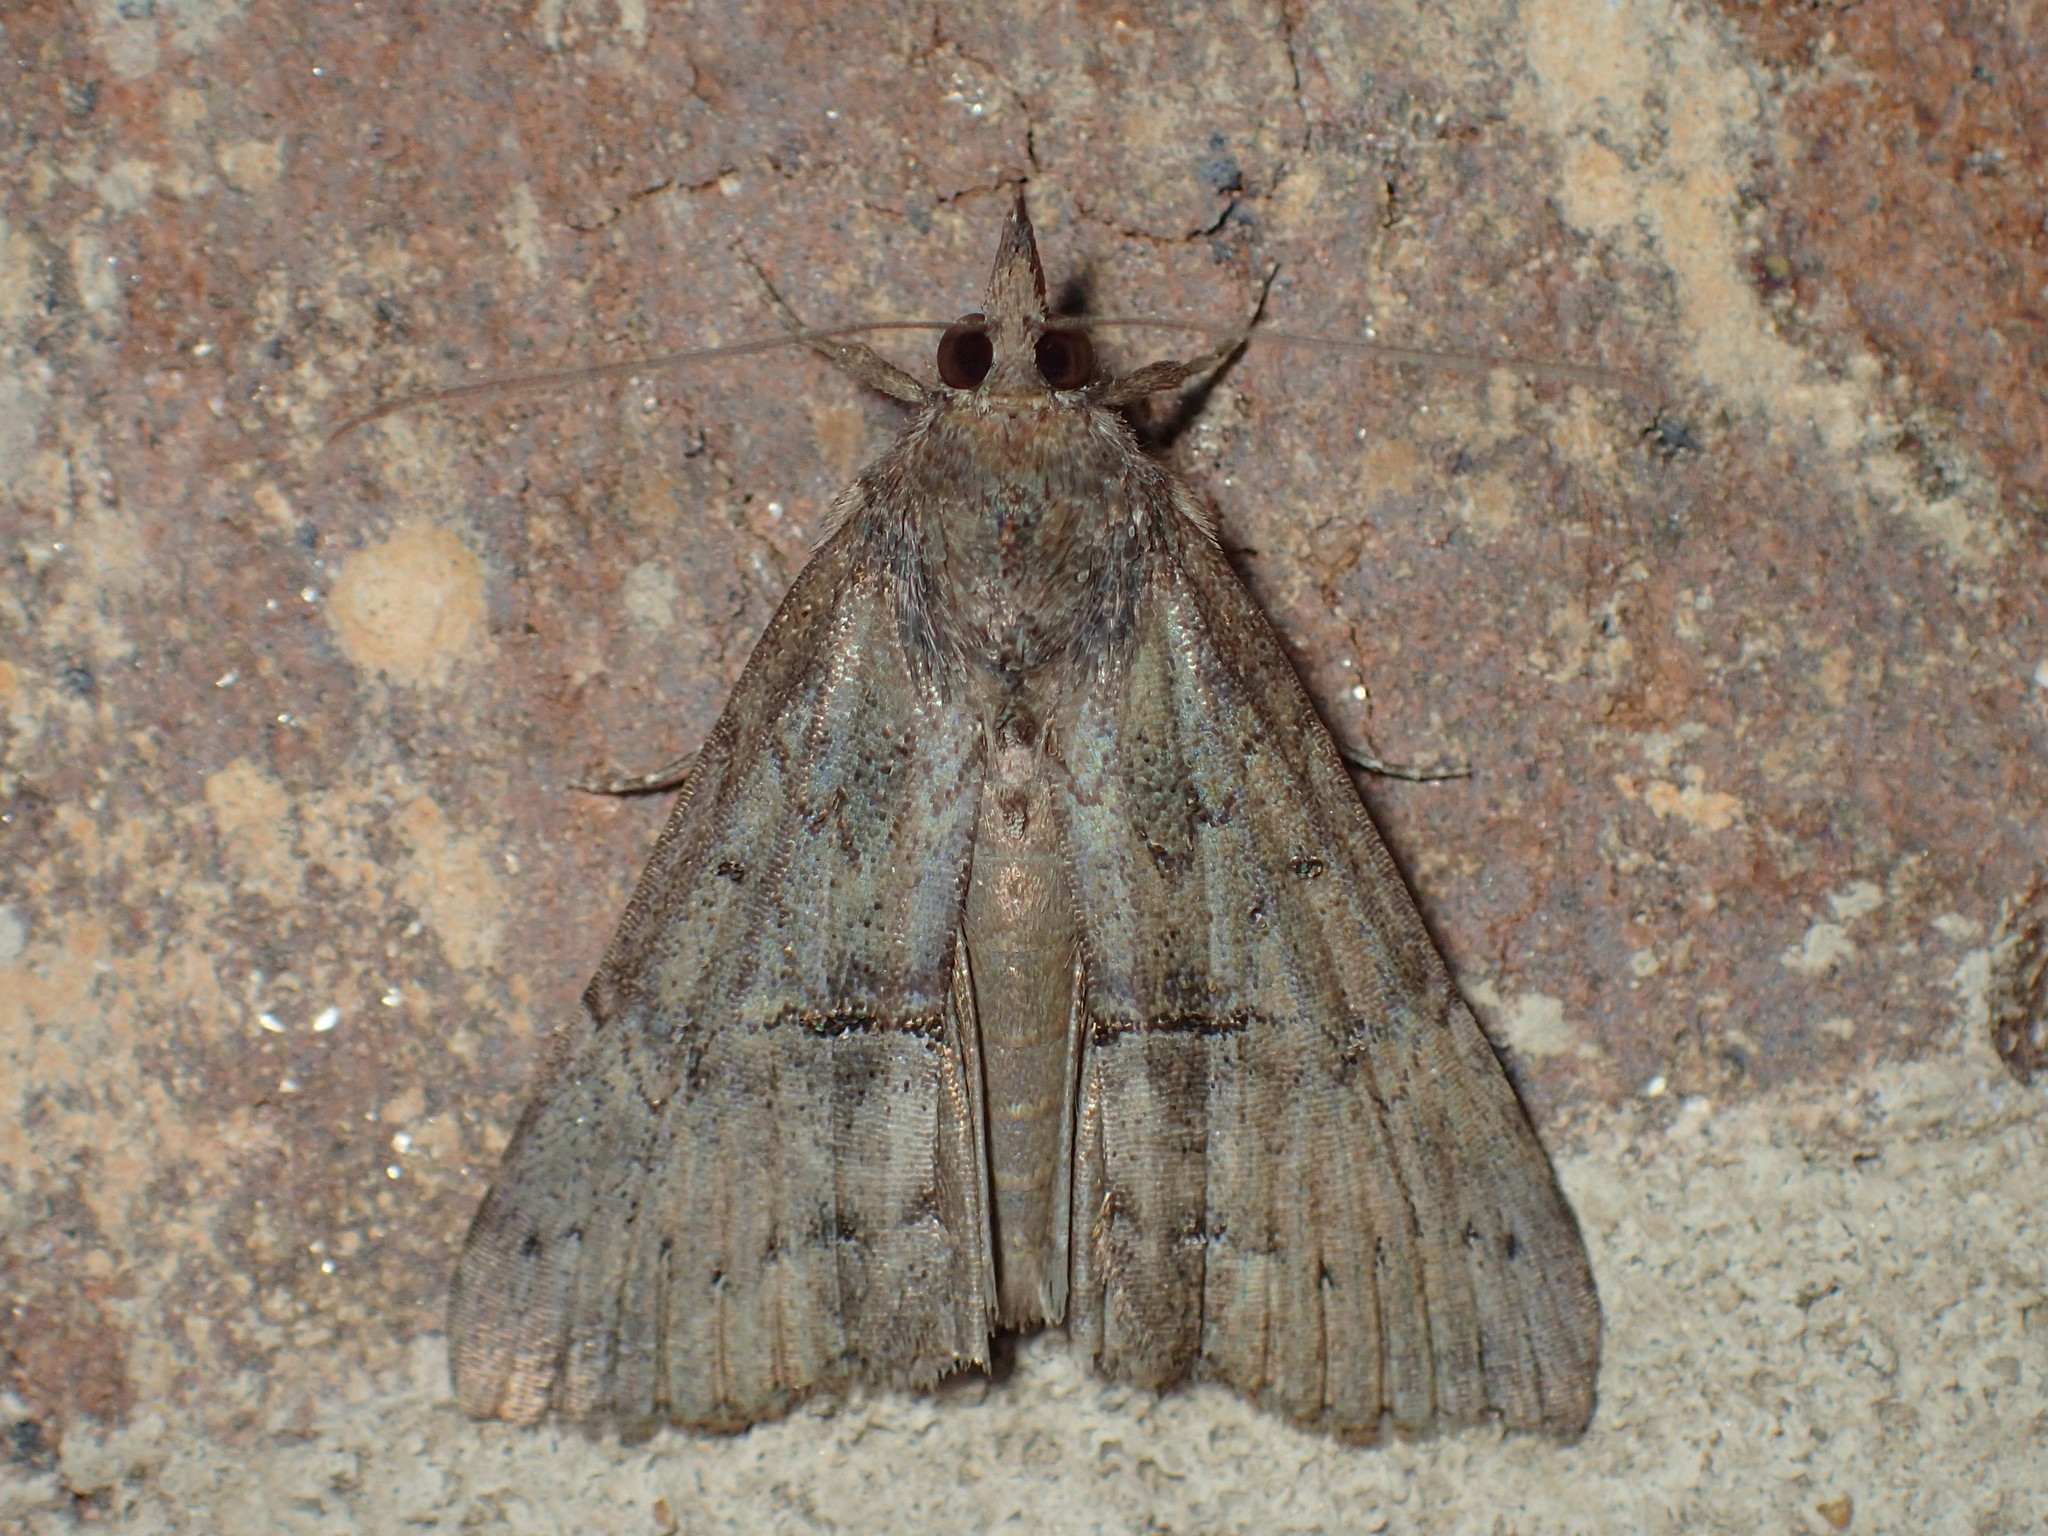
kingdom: Animalia
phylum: Arthropoda
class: Insecta
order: Lepidoptera
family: Erebidae
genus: Hypena
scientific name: Hypena scabra
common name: Green cloverworm
